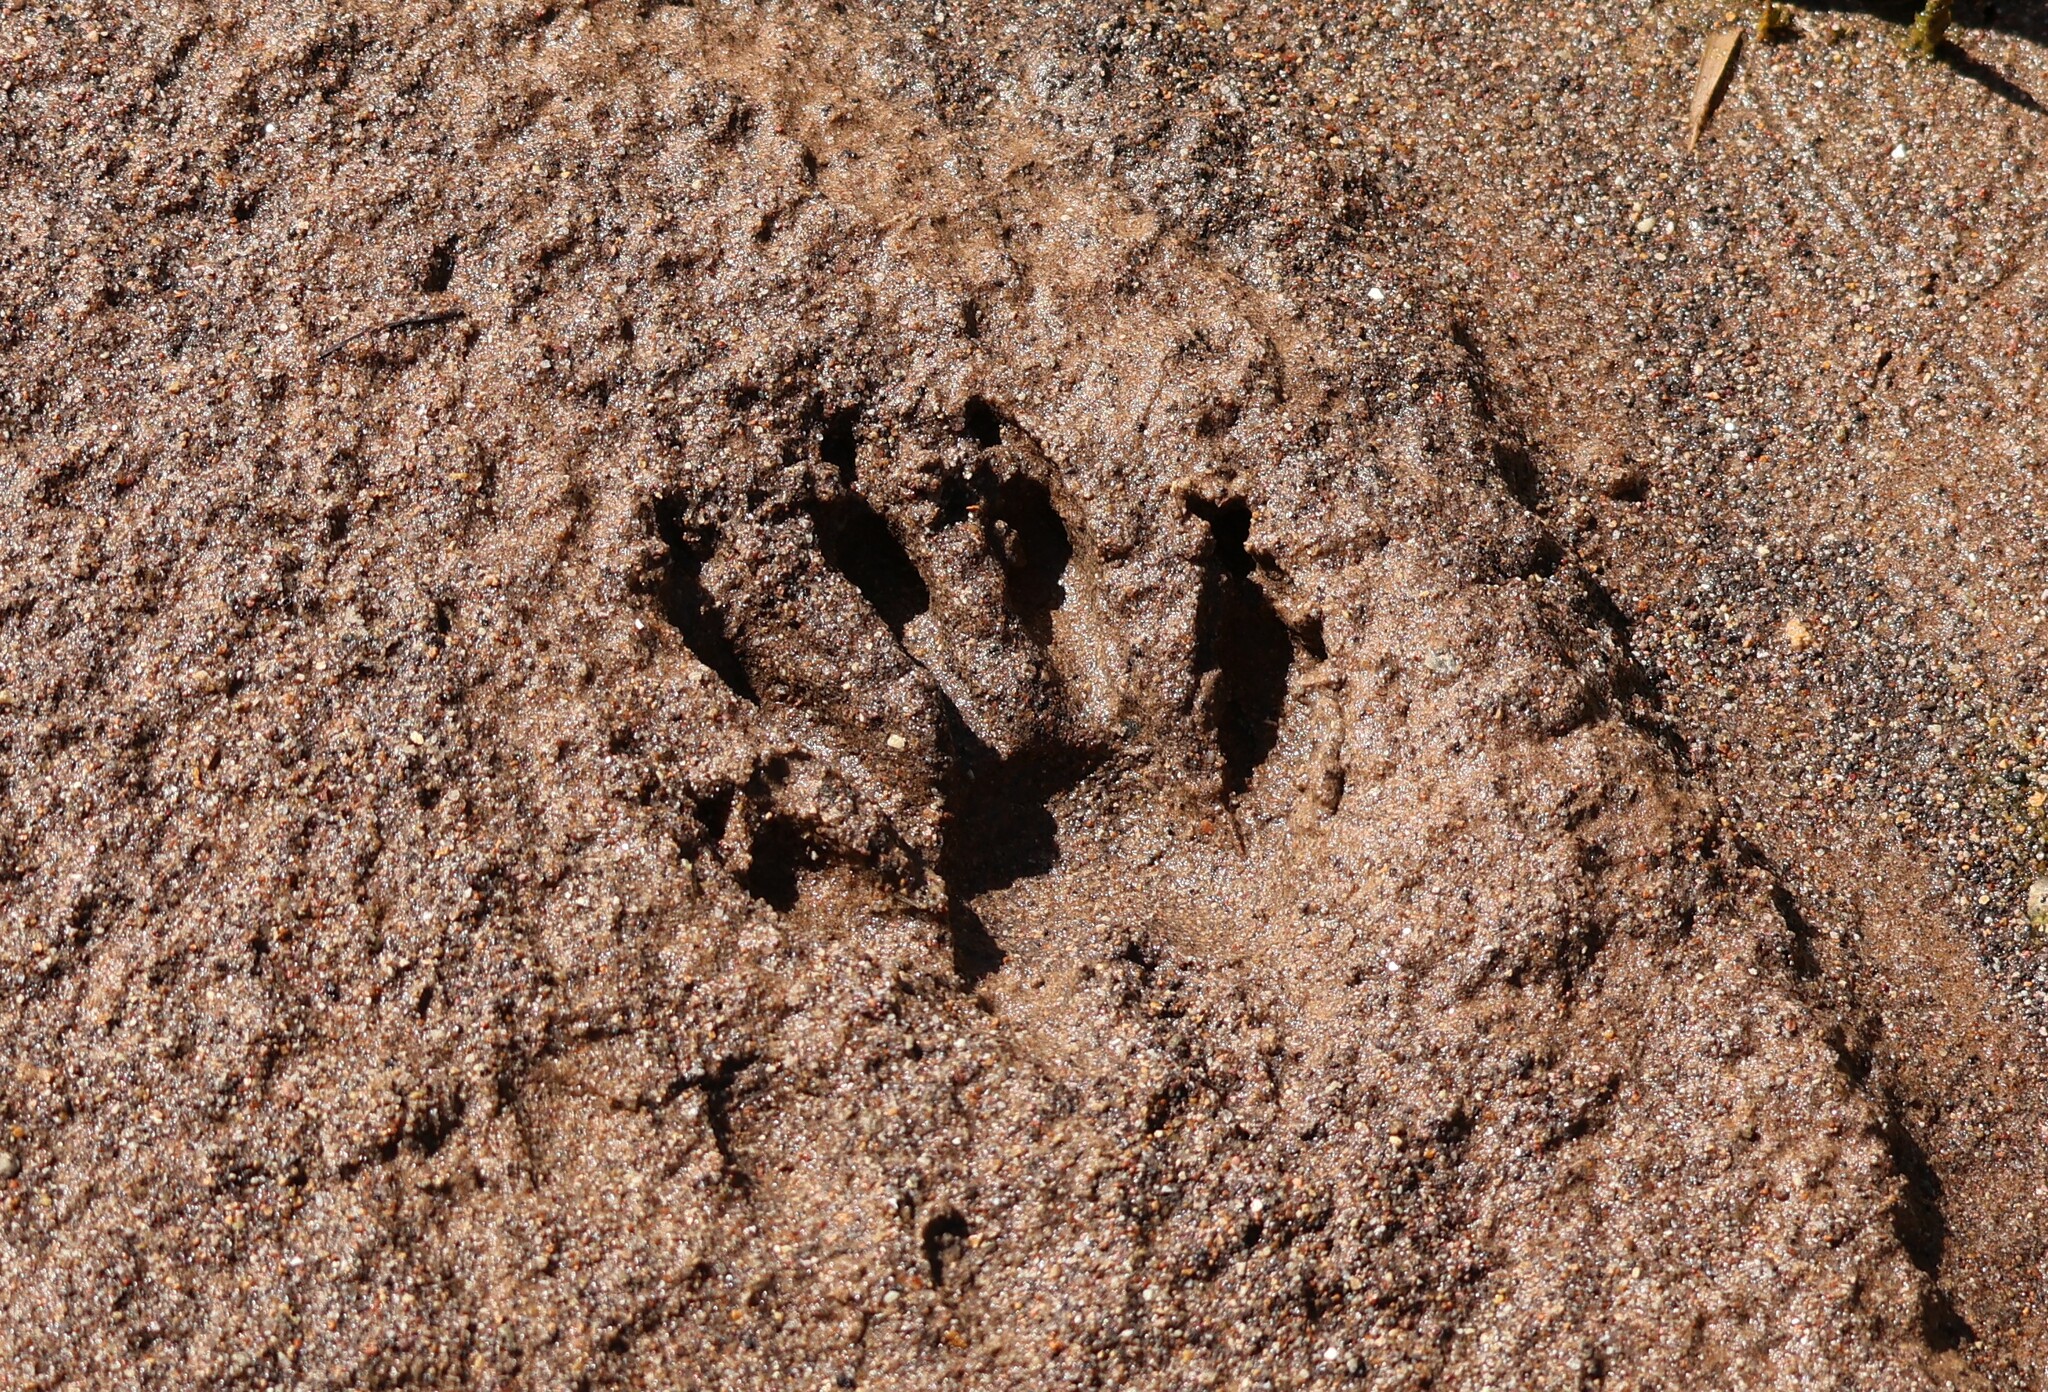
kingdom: Animalia
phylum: Chordata
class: Mammalia
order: Carnivora
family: Procyonidae
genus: Procyon
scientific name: Procyon lotor
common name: Raccoon
